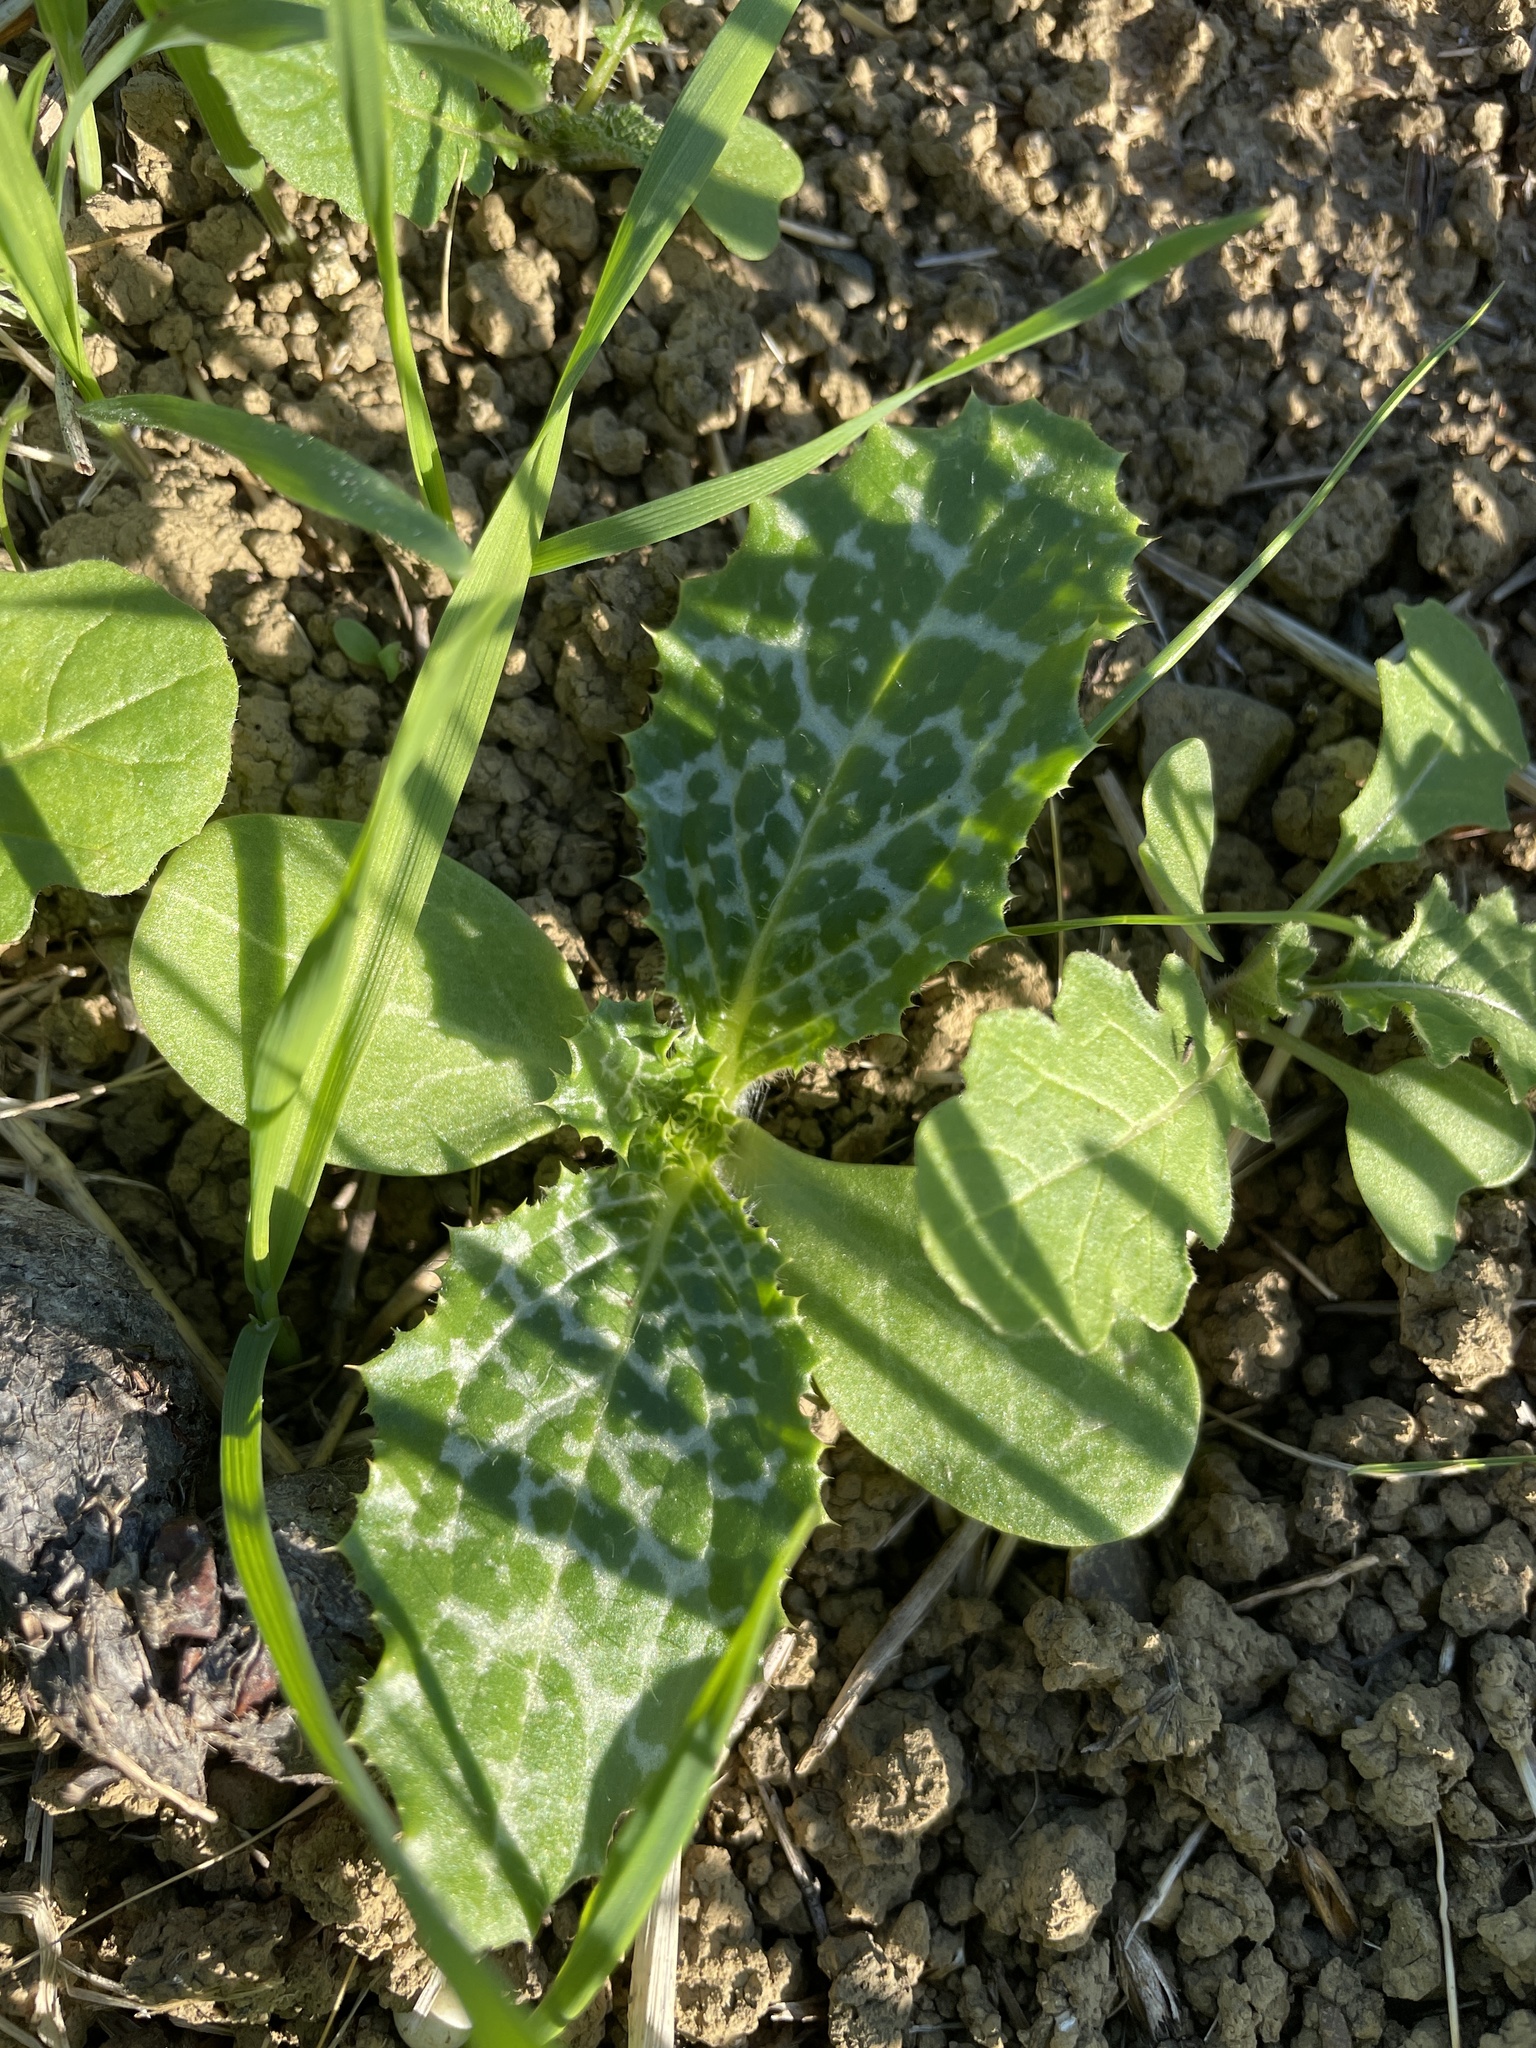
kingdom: Plantae
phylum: Tracheophyta
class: Magnoliopsida
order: Asterales
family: Asteraceae
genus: Silybum
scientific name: Silybum marianum
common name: Milk thistle
